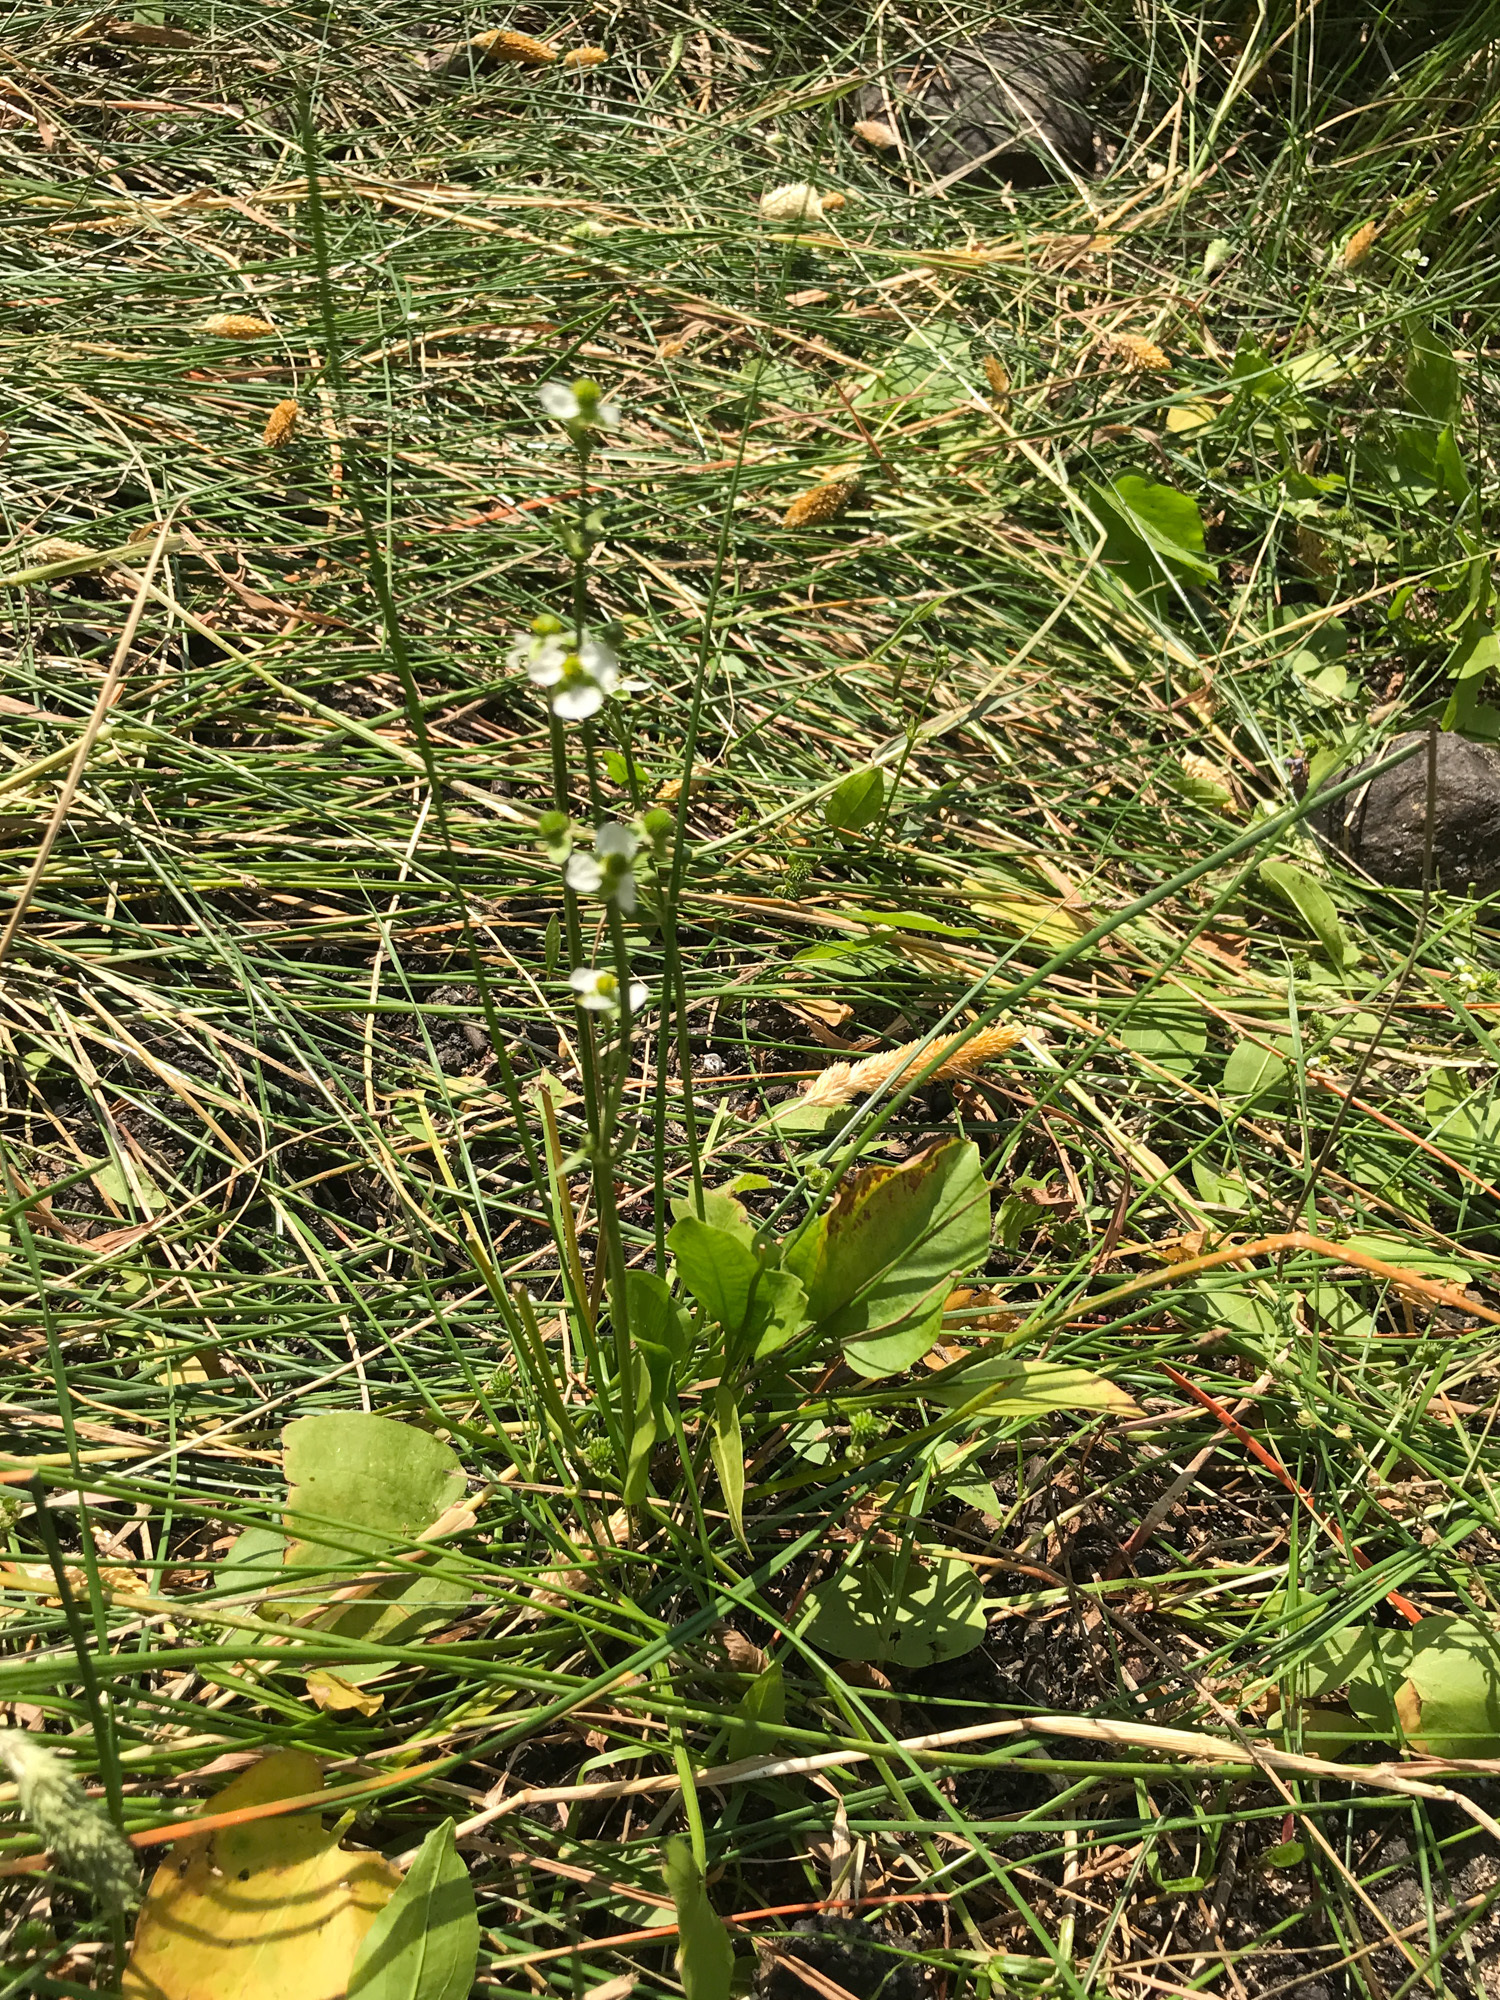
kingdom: Plantae
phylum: Tracheophyta
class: Liliopsida
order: Alismatales
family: Alismataceae
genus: Echinodorus
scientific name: Echinodorus berteroi
